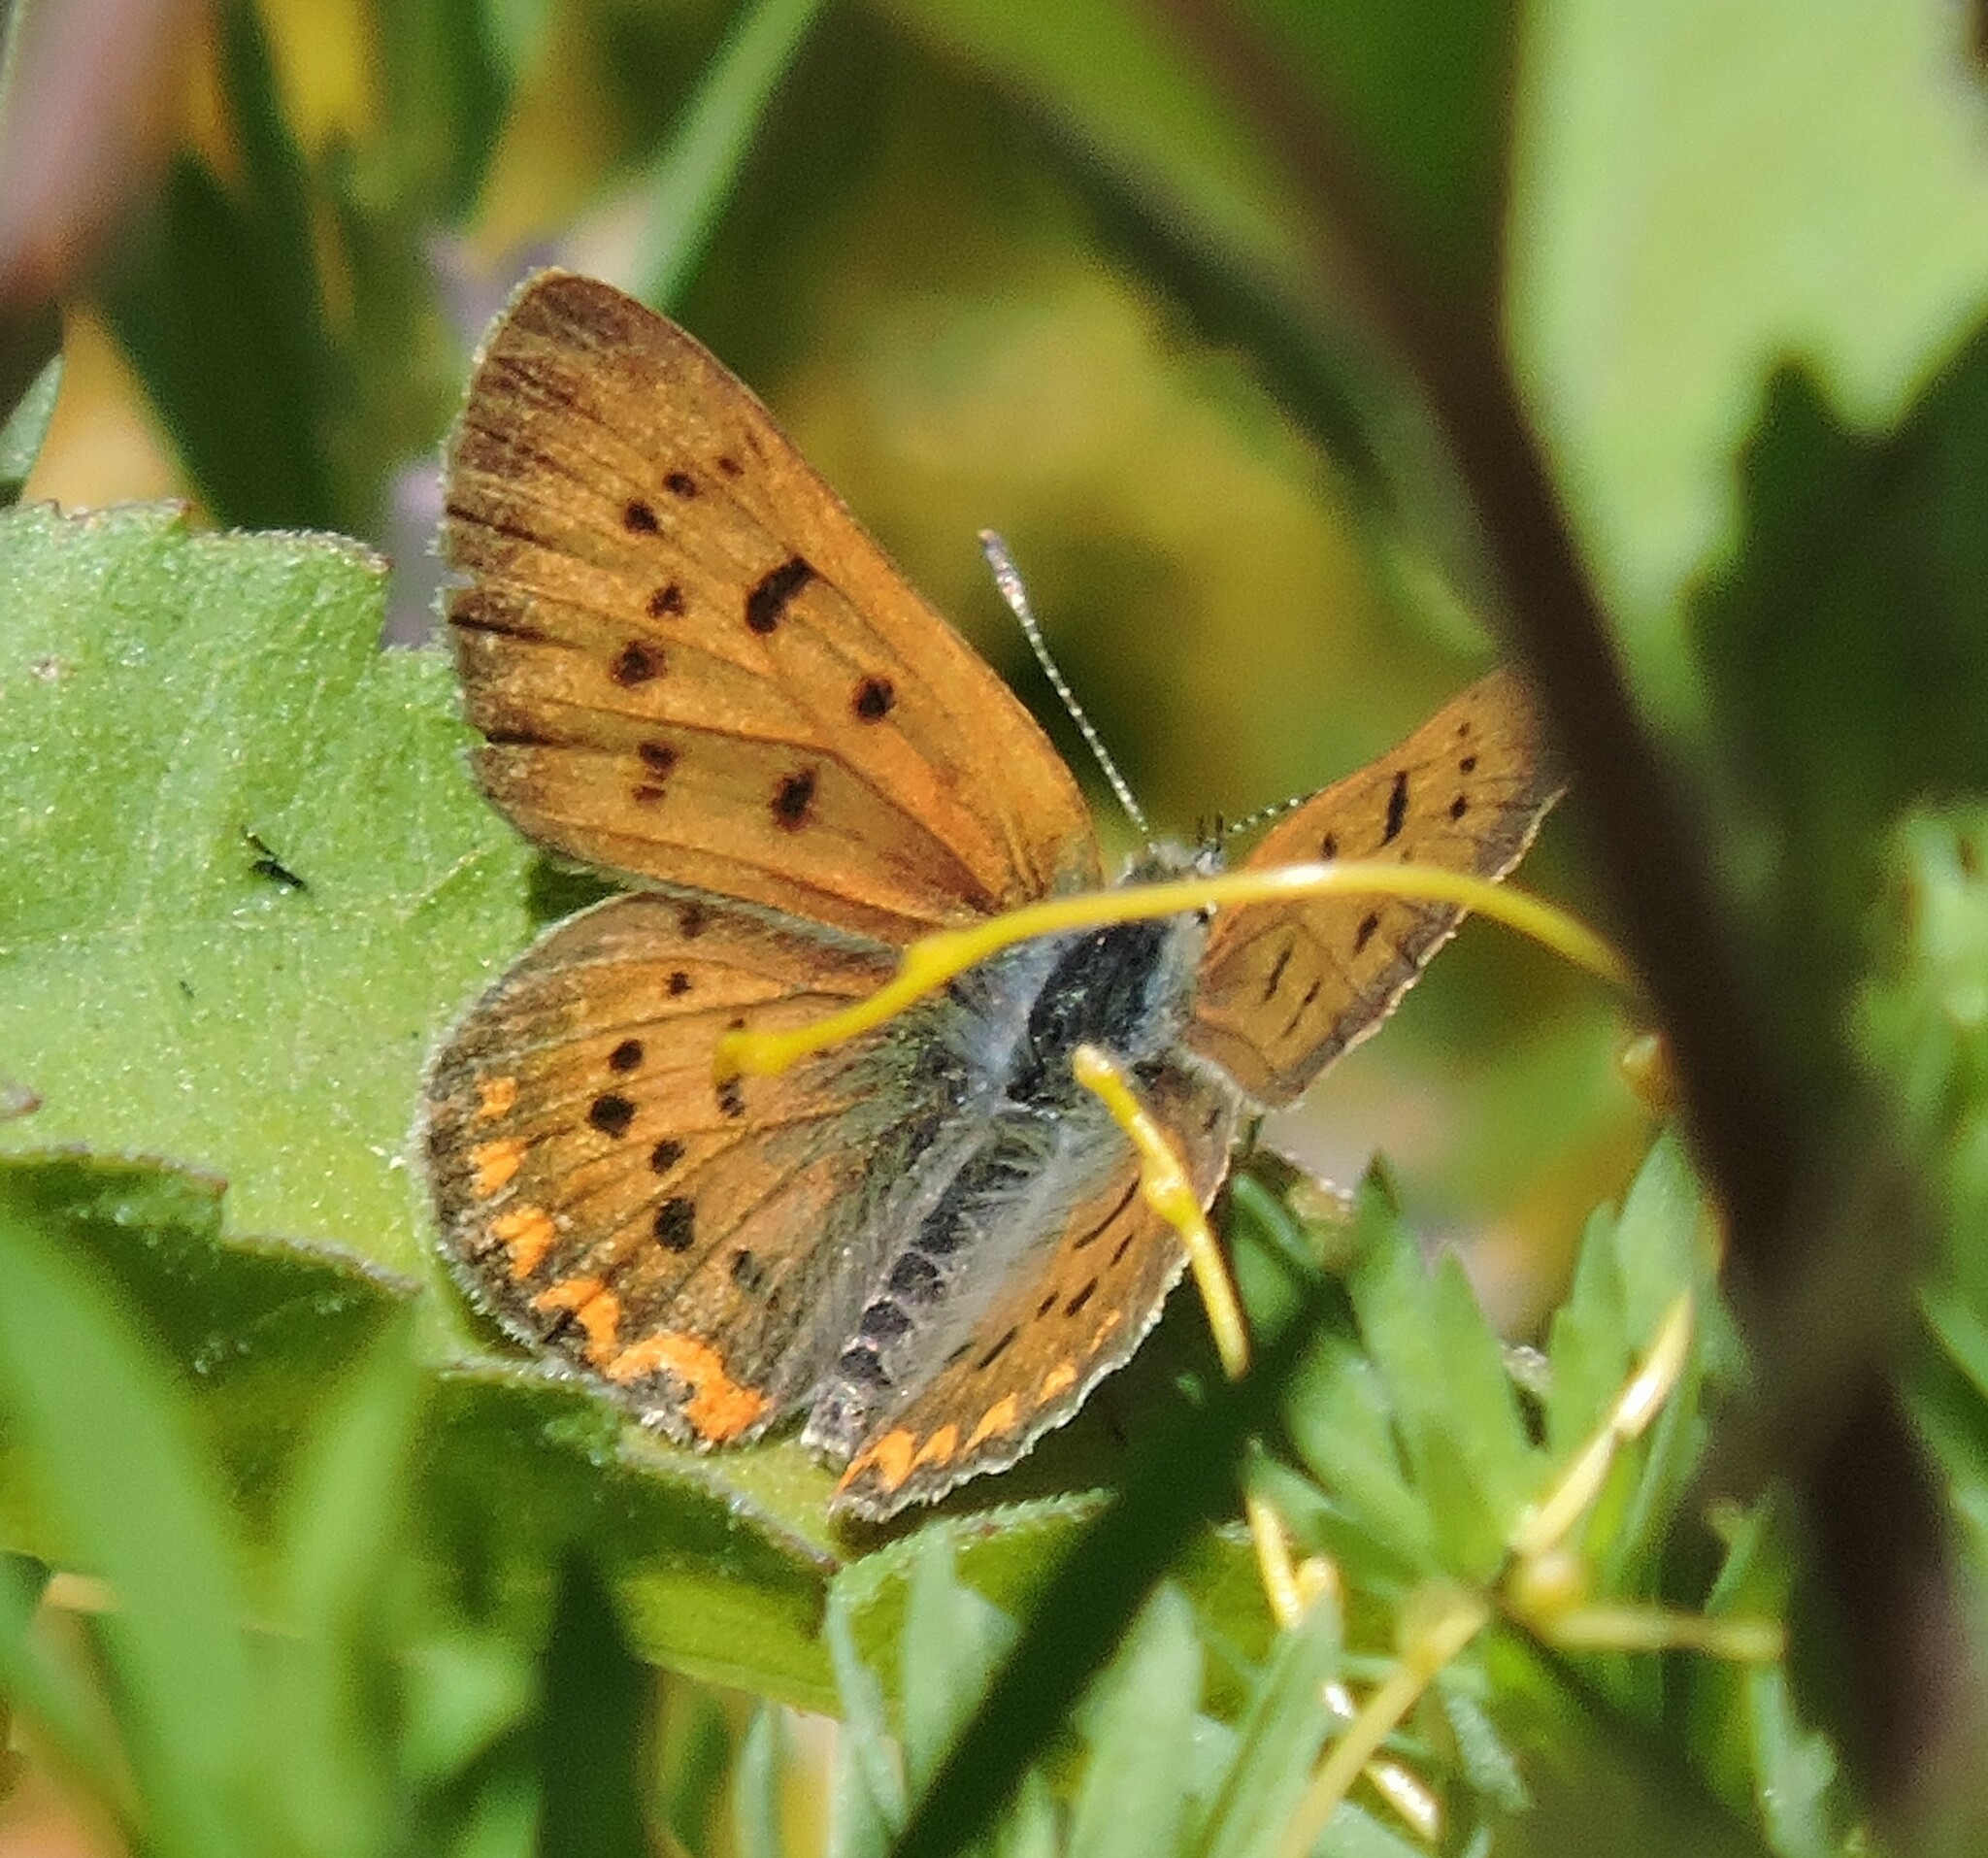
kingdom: Animalia
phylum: Arthropoda
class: Insecta
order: Lepidoptera
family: Lycaenidae
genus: Tharsalea
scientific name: Tharsalea helloides
